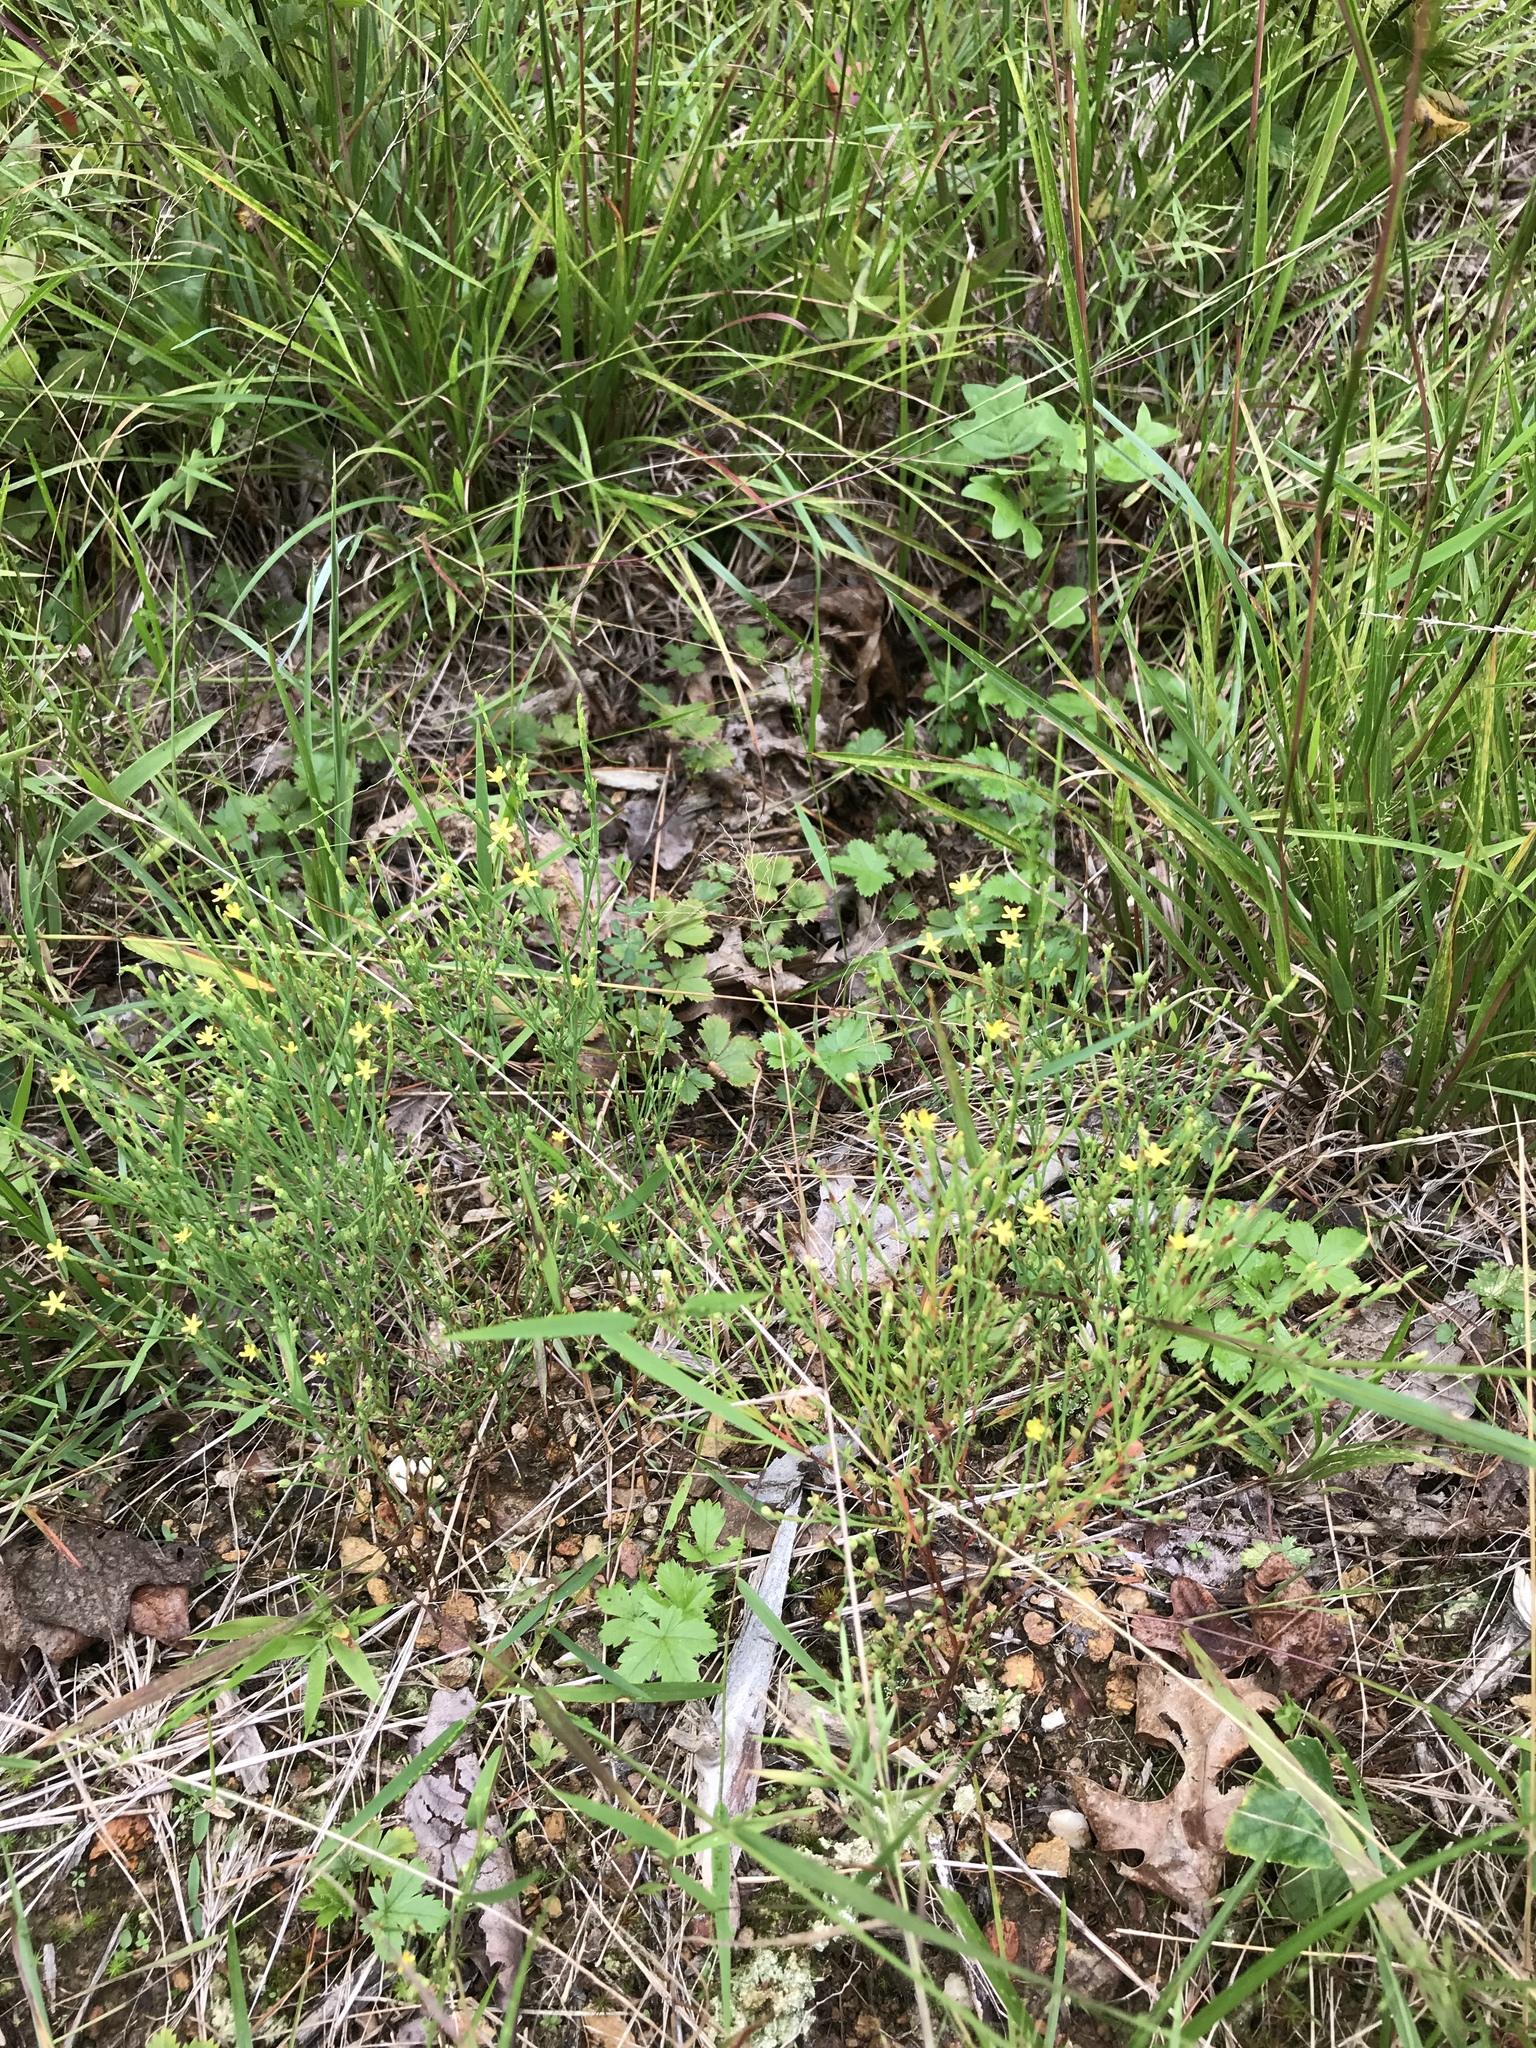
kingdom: Plantae
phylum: Tracheophyta
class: Magnoliopsida
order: Malpighiales
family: Hypericaceae
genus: Hypericum
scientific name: Hypericum gentianoides
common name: Gentian-leaved st. john's-wort
